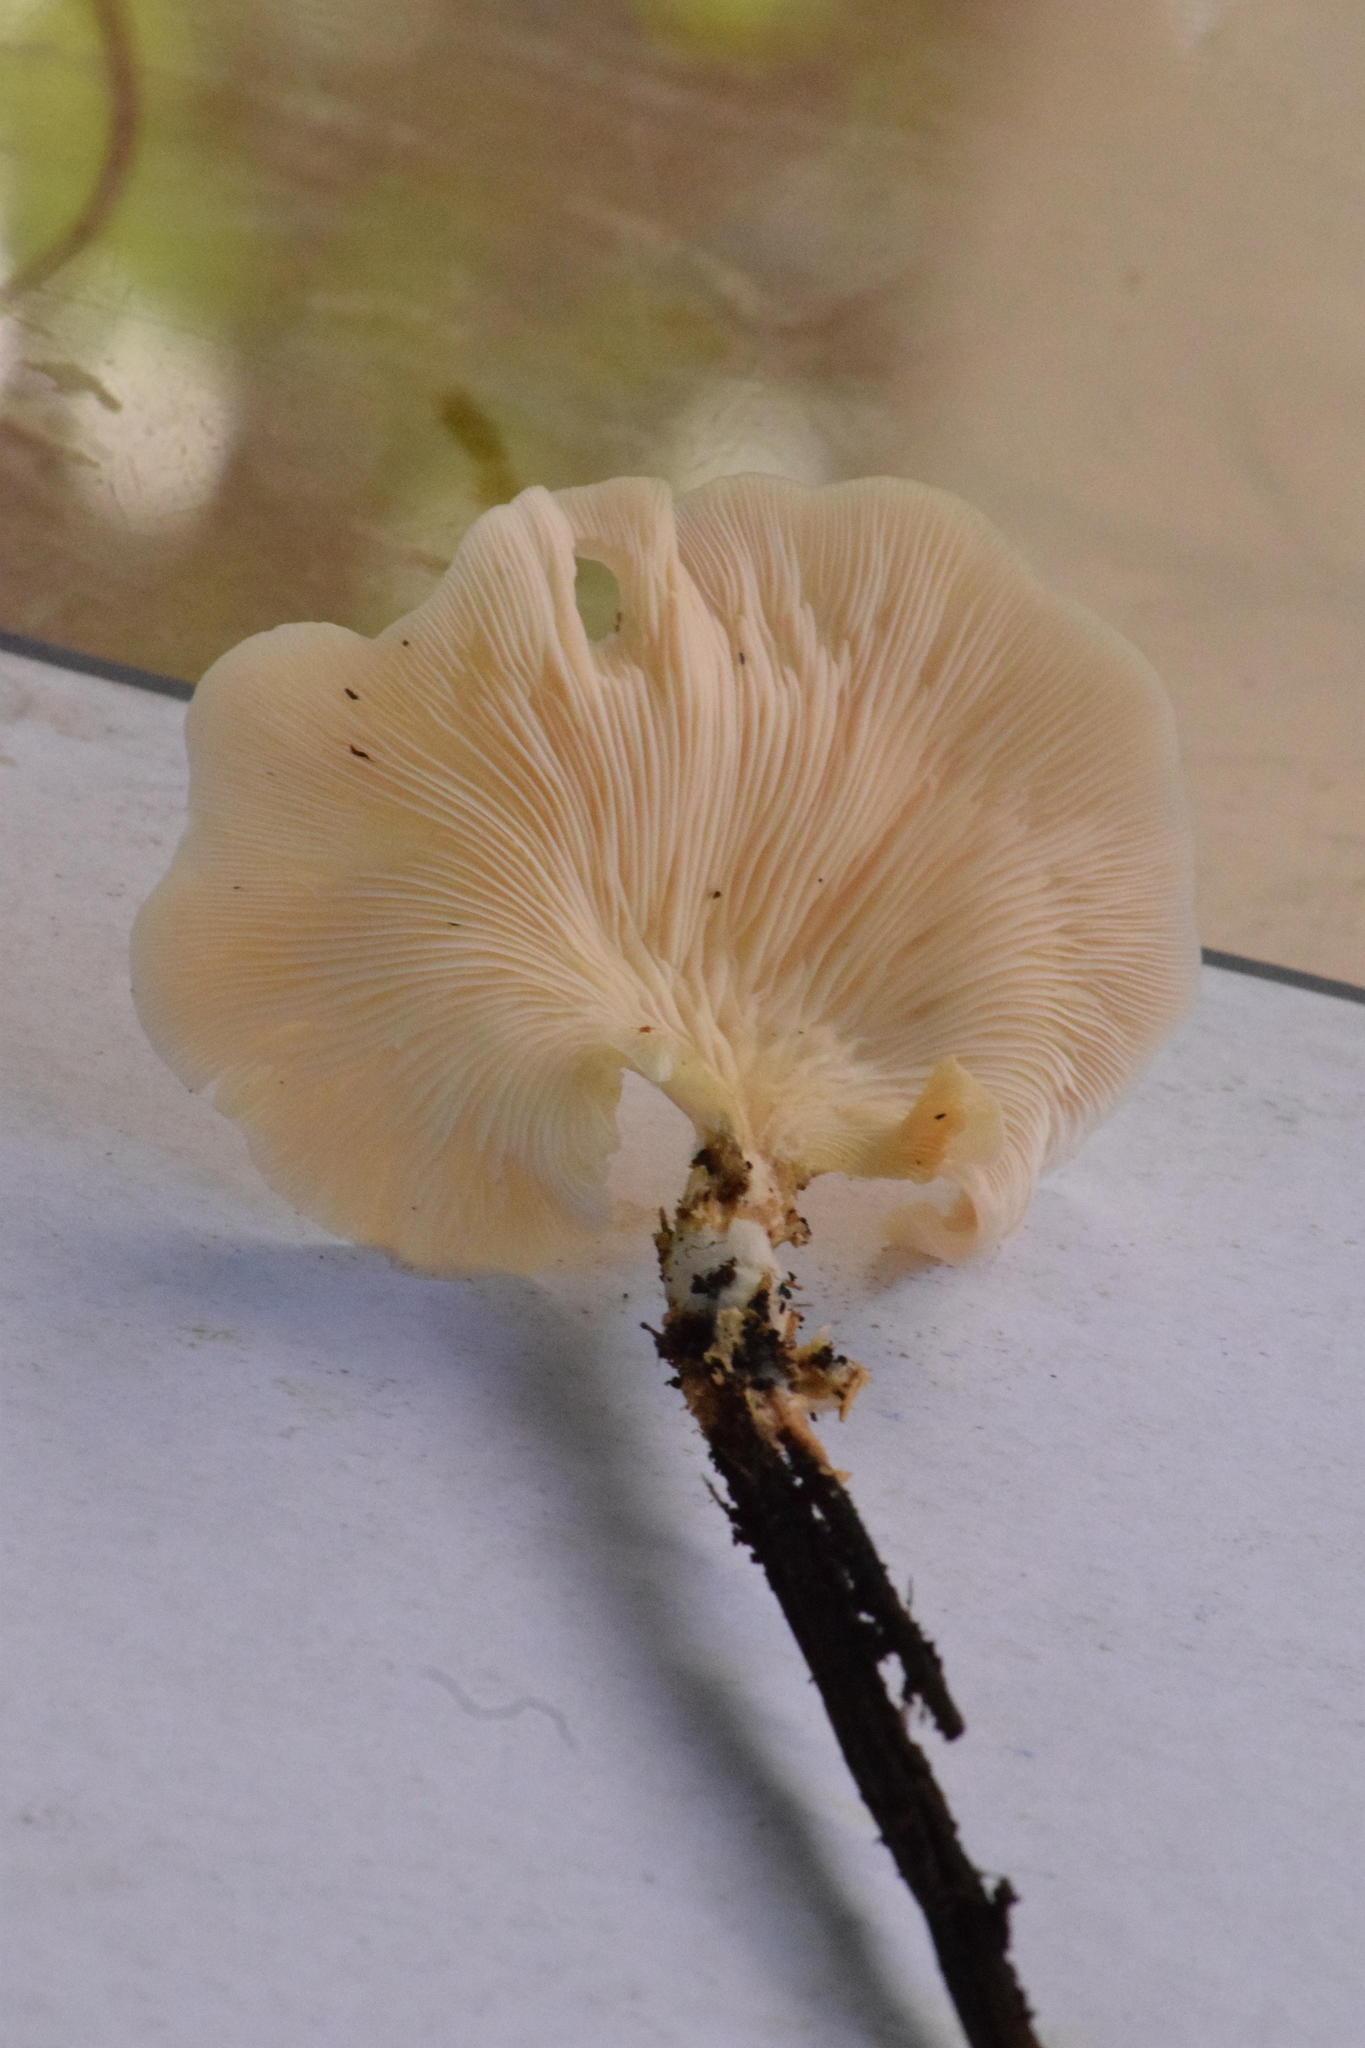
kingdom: Fungi
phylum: Basidiomycota
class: Agaricomycetes
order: Agaricales
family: Pleurotaceae
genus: Pleurotus
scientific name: Pleurotus djamor
